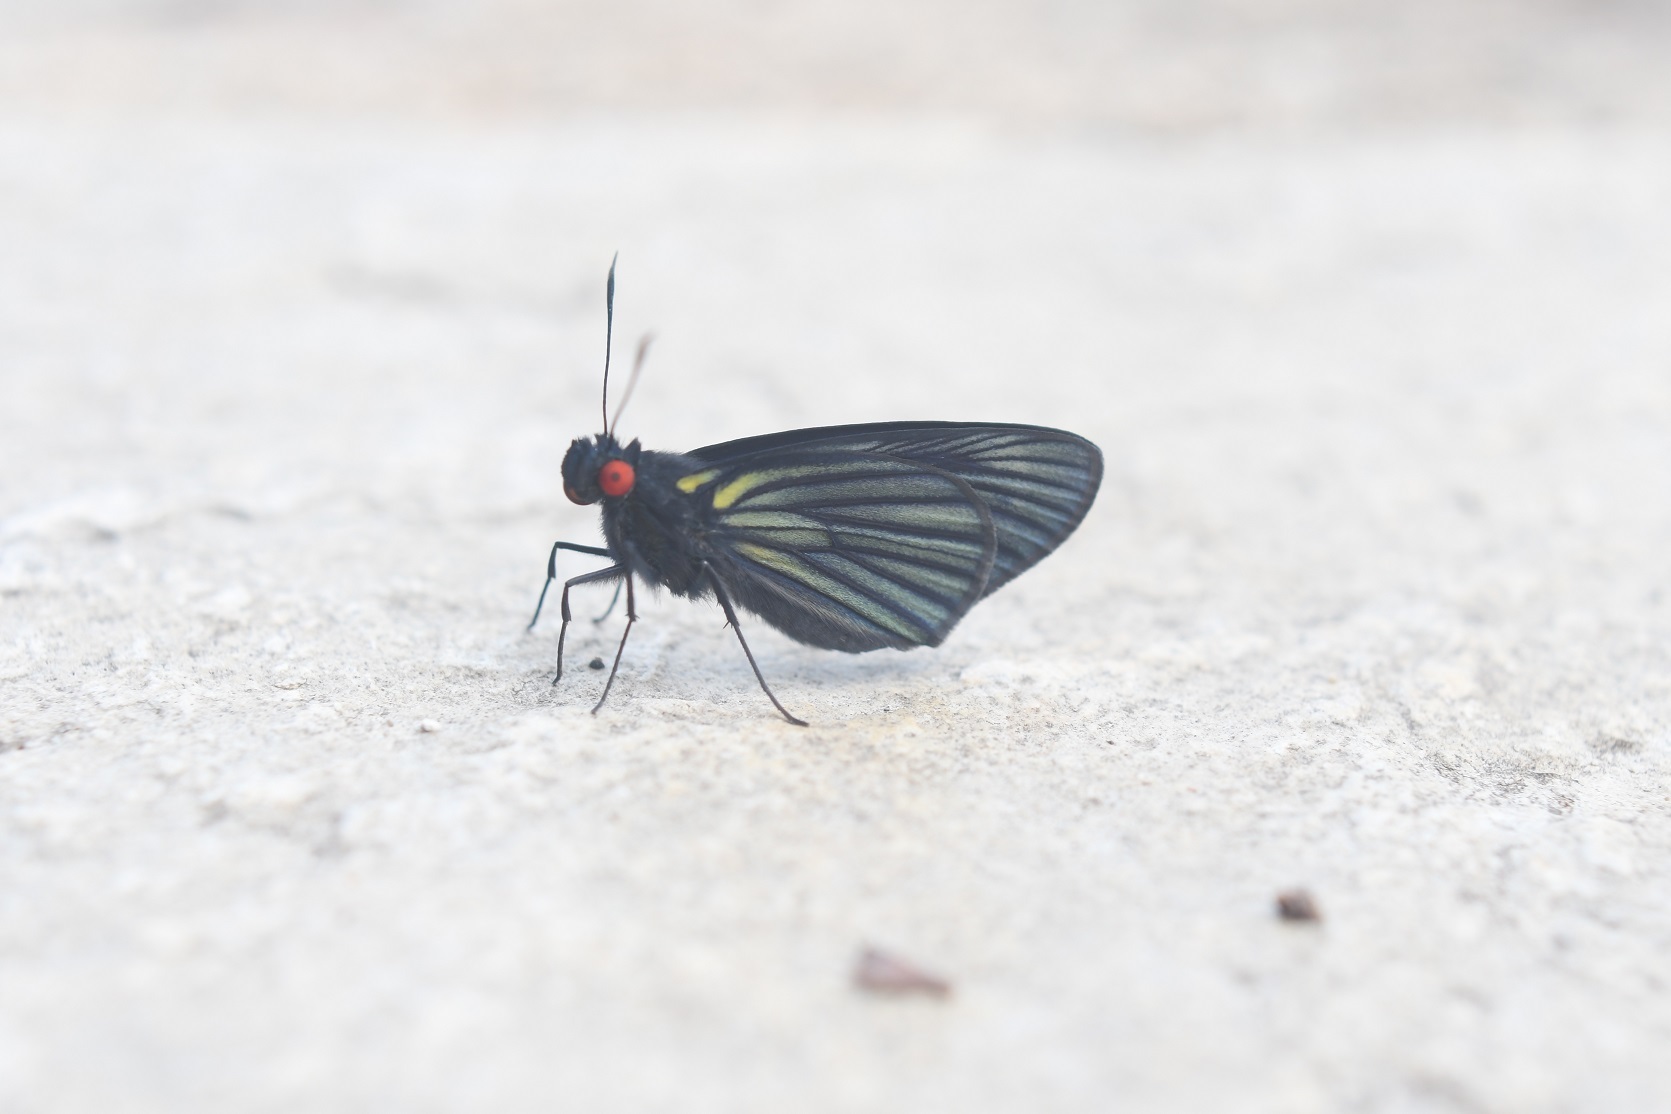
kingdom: Animalia
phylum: Arthropoda
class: Insecta
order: Lepidoptera
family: Hesperiidae
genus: Carystus
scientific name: Carystus
